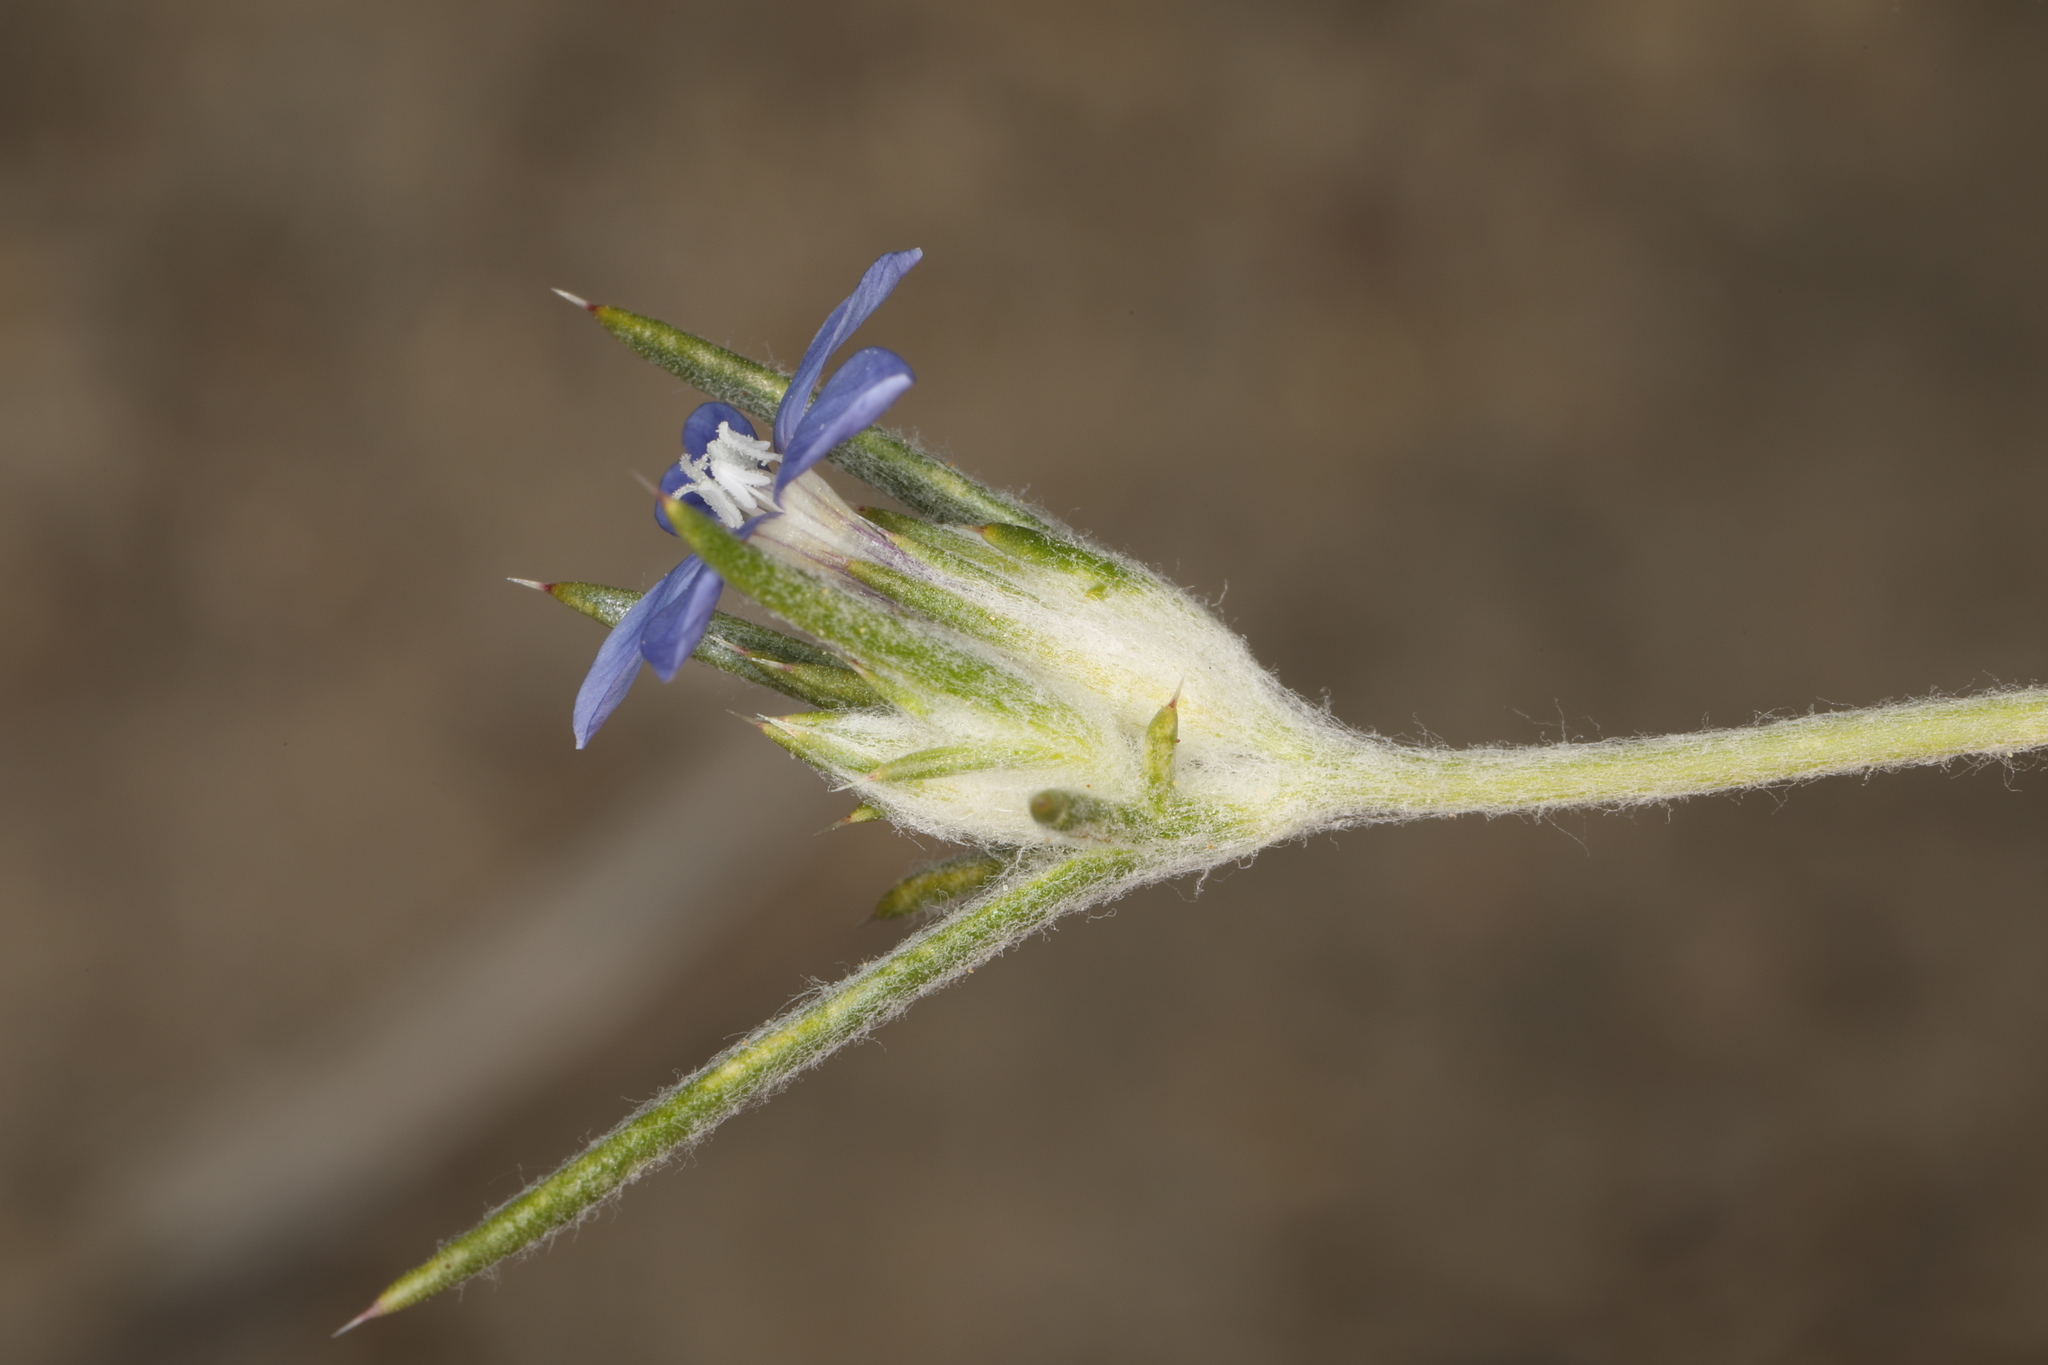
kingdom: Plantae
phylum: Tracheophyta
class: Magnoliopsida
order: Ericales
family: Polemoniaceae
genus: Eriastrum
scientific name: Eriastrum wilcoxii
